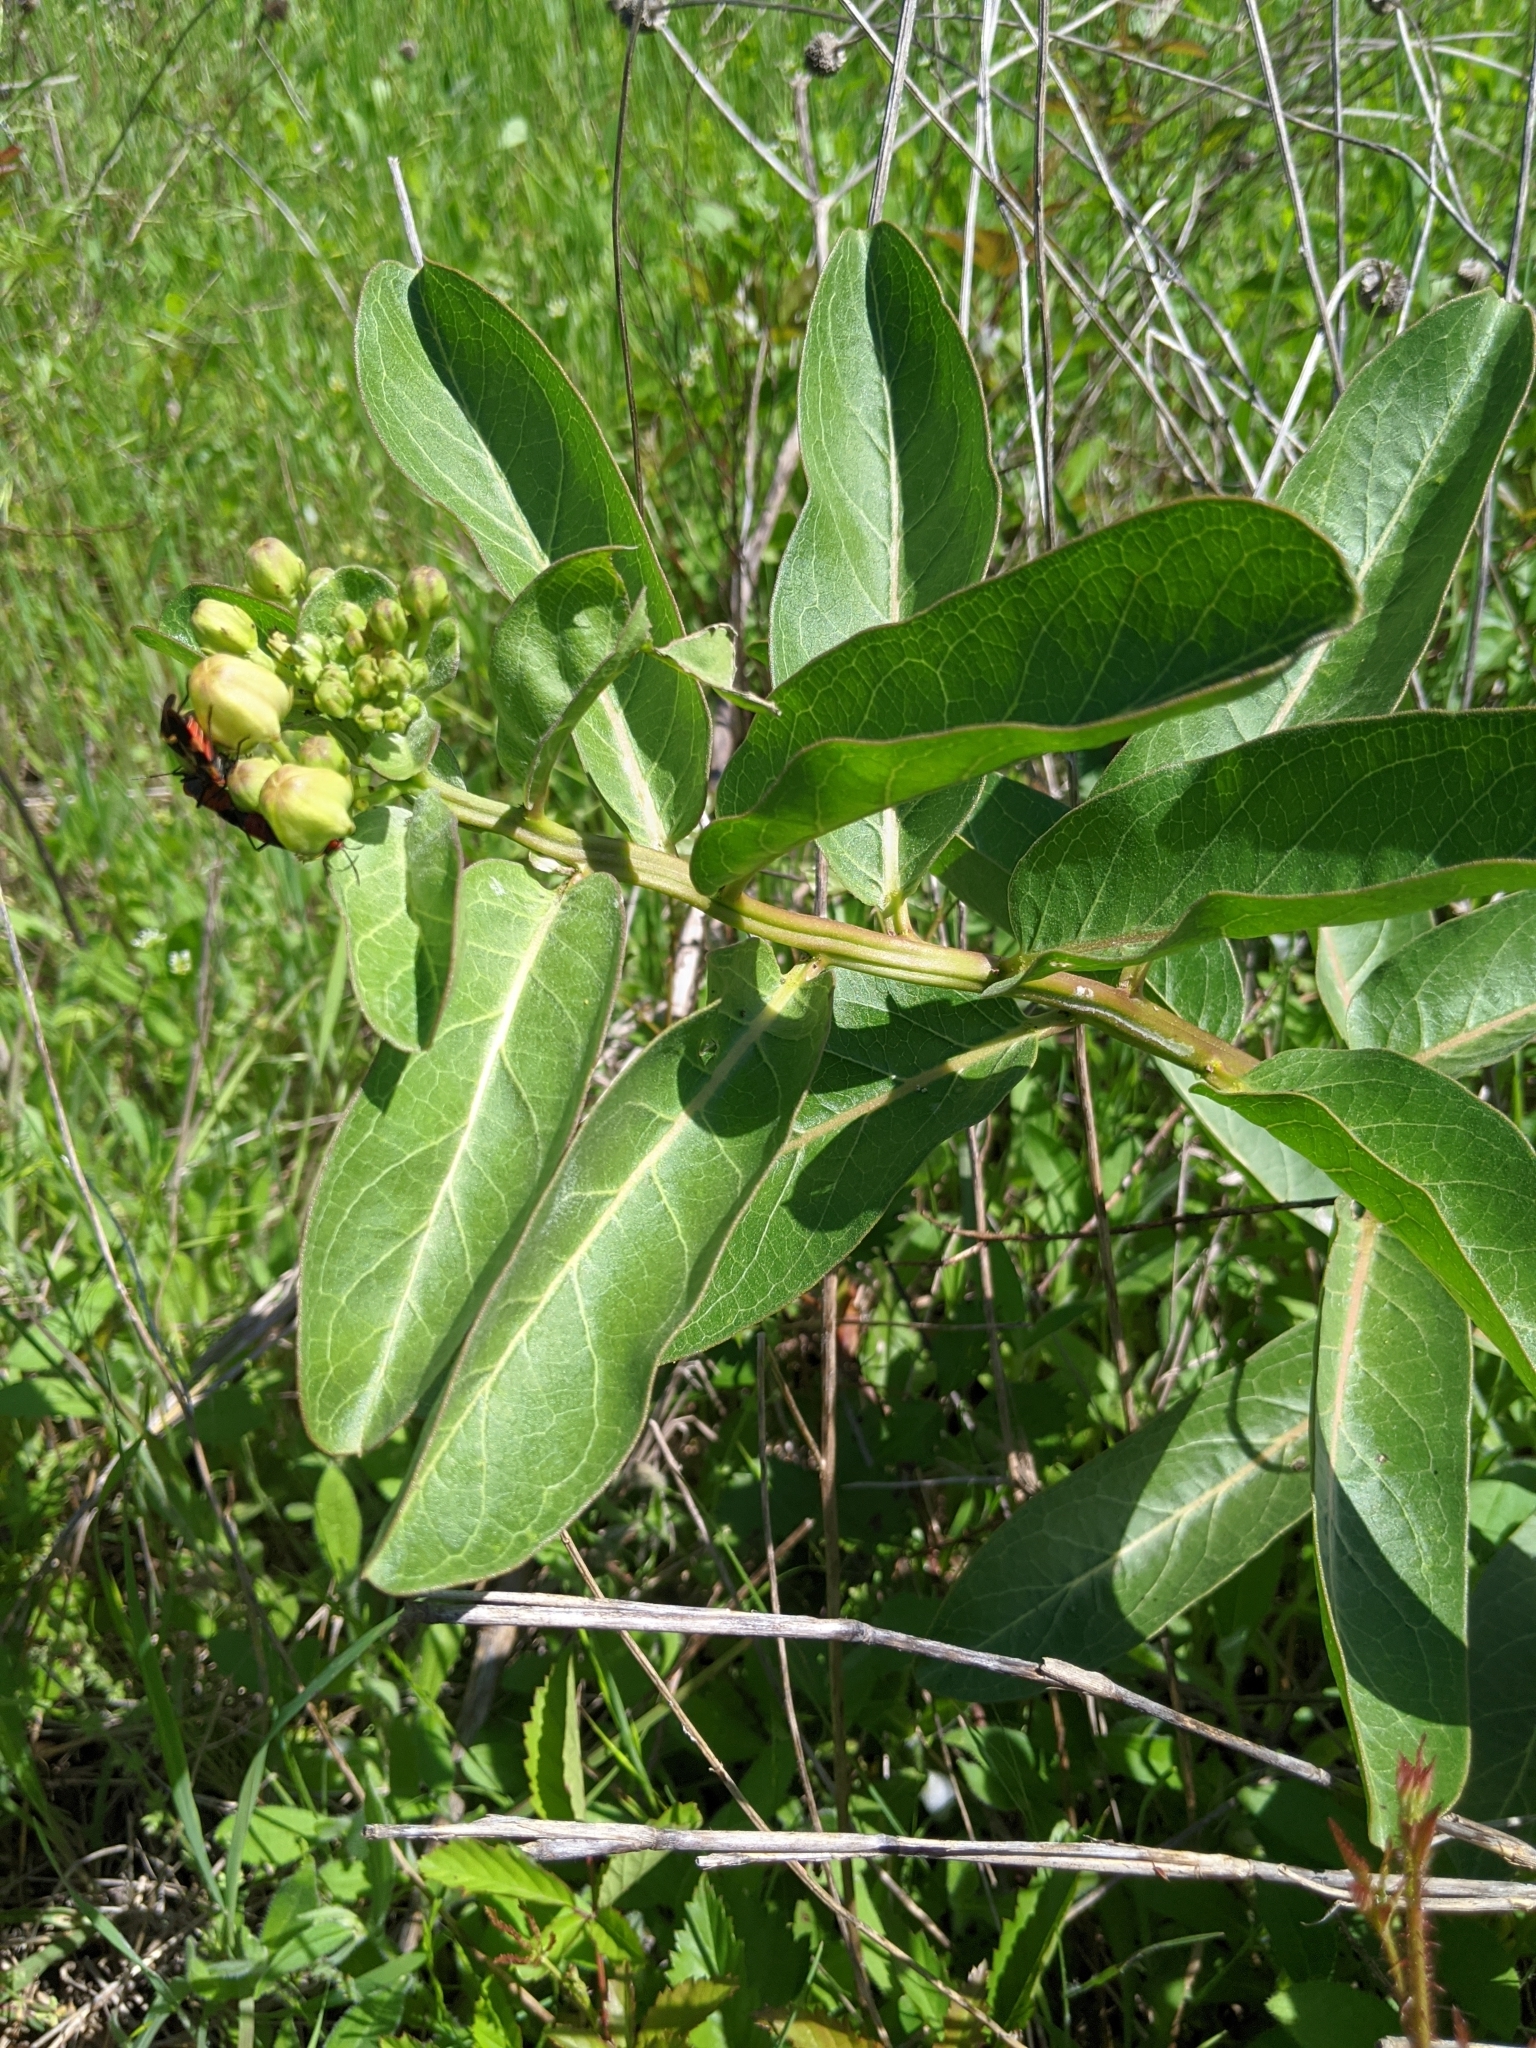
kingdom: Plantae
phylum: Tracheophyta
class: Magnoliopsida
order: Gentianales
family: Apocynaceae
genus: Asclepias
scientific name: Asclepias viridis
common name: Antelope-horns
